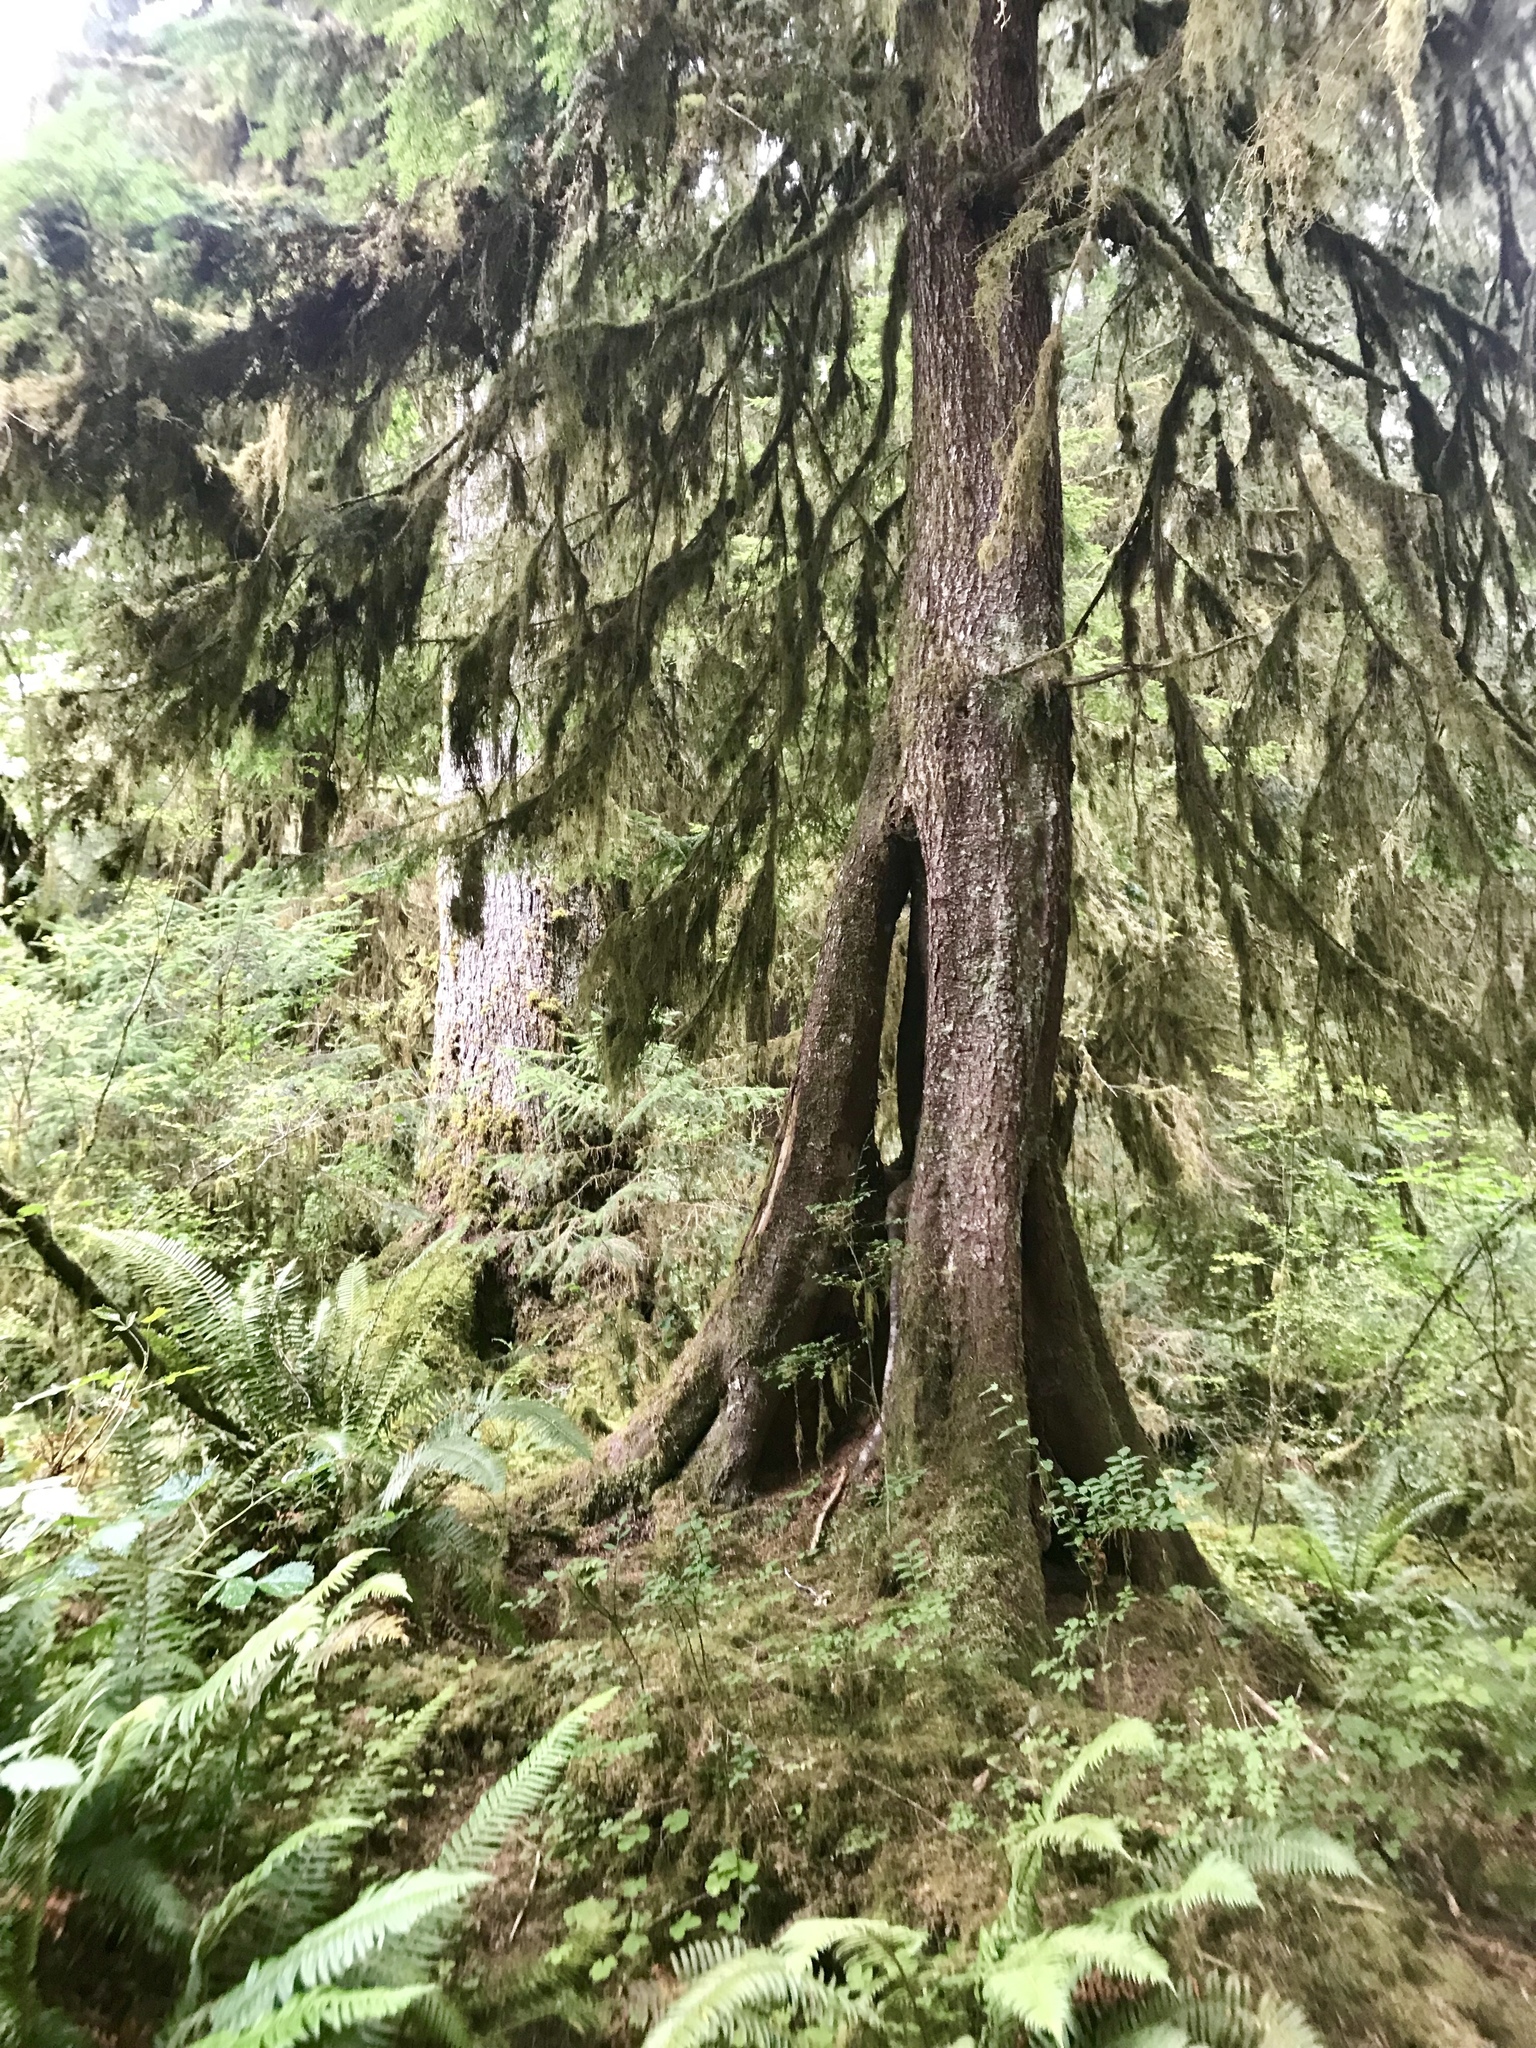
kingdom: Plantae
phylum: Tracheophyta
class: Pinopsida
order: Pinales
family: Pinaceae
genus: Tsuga
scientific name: Tsuga heterophylla
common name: Western hemlock
